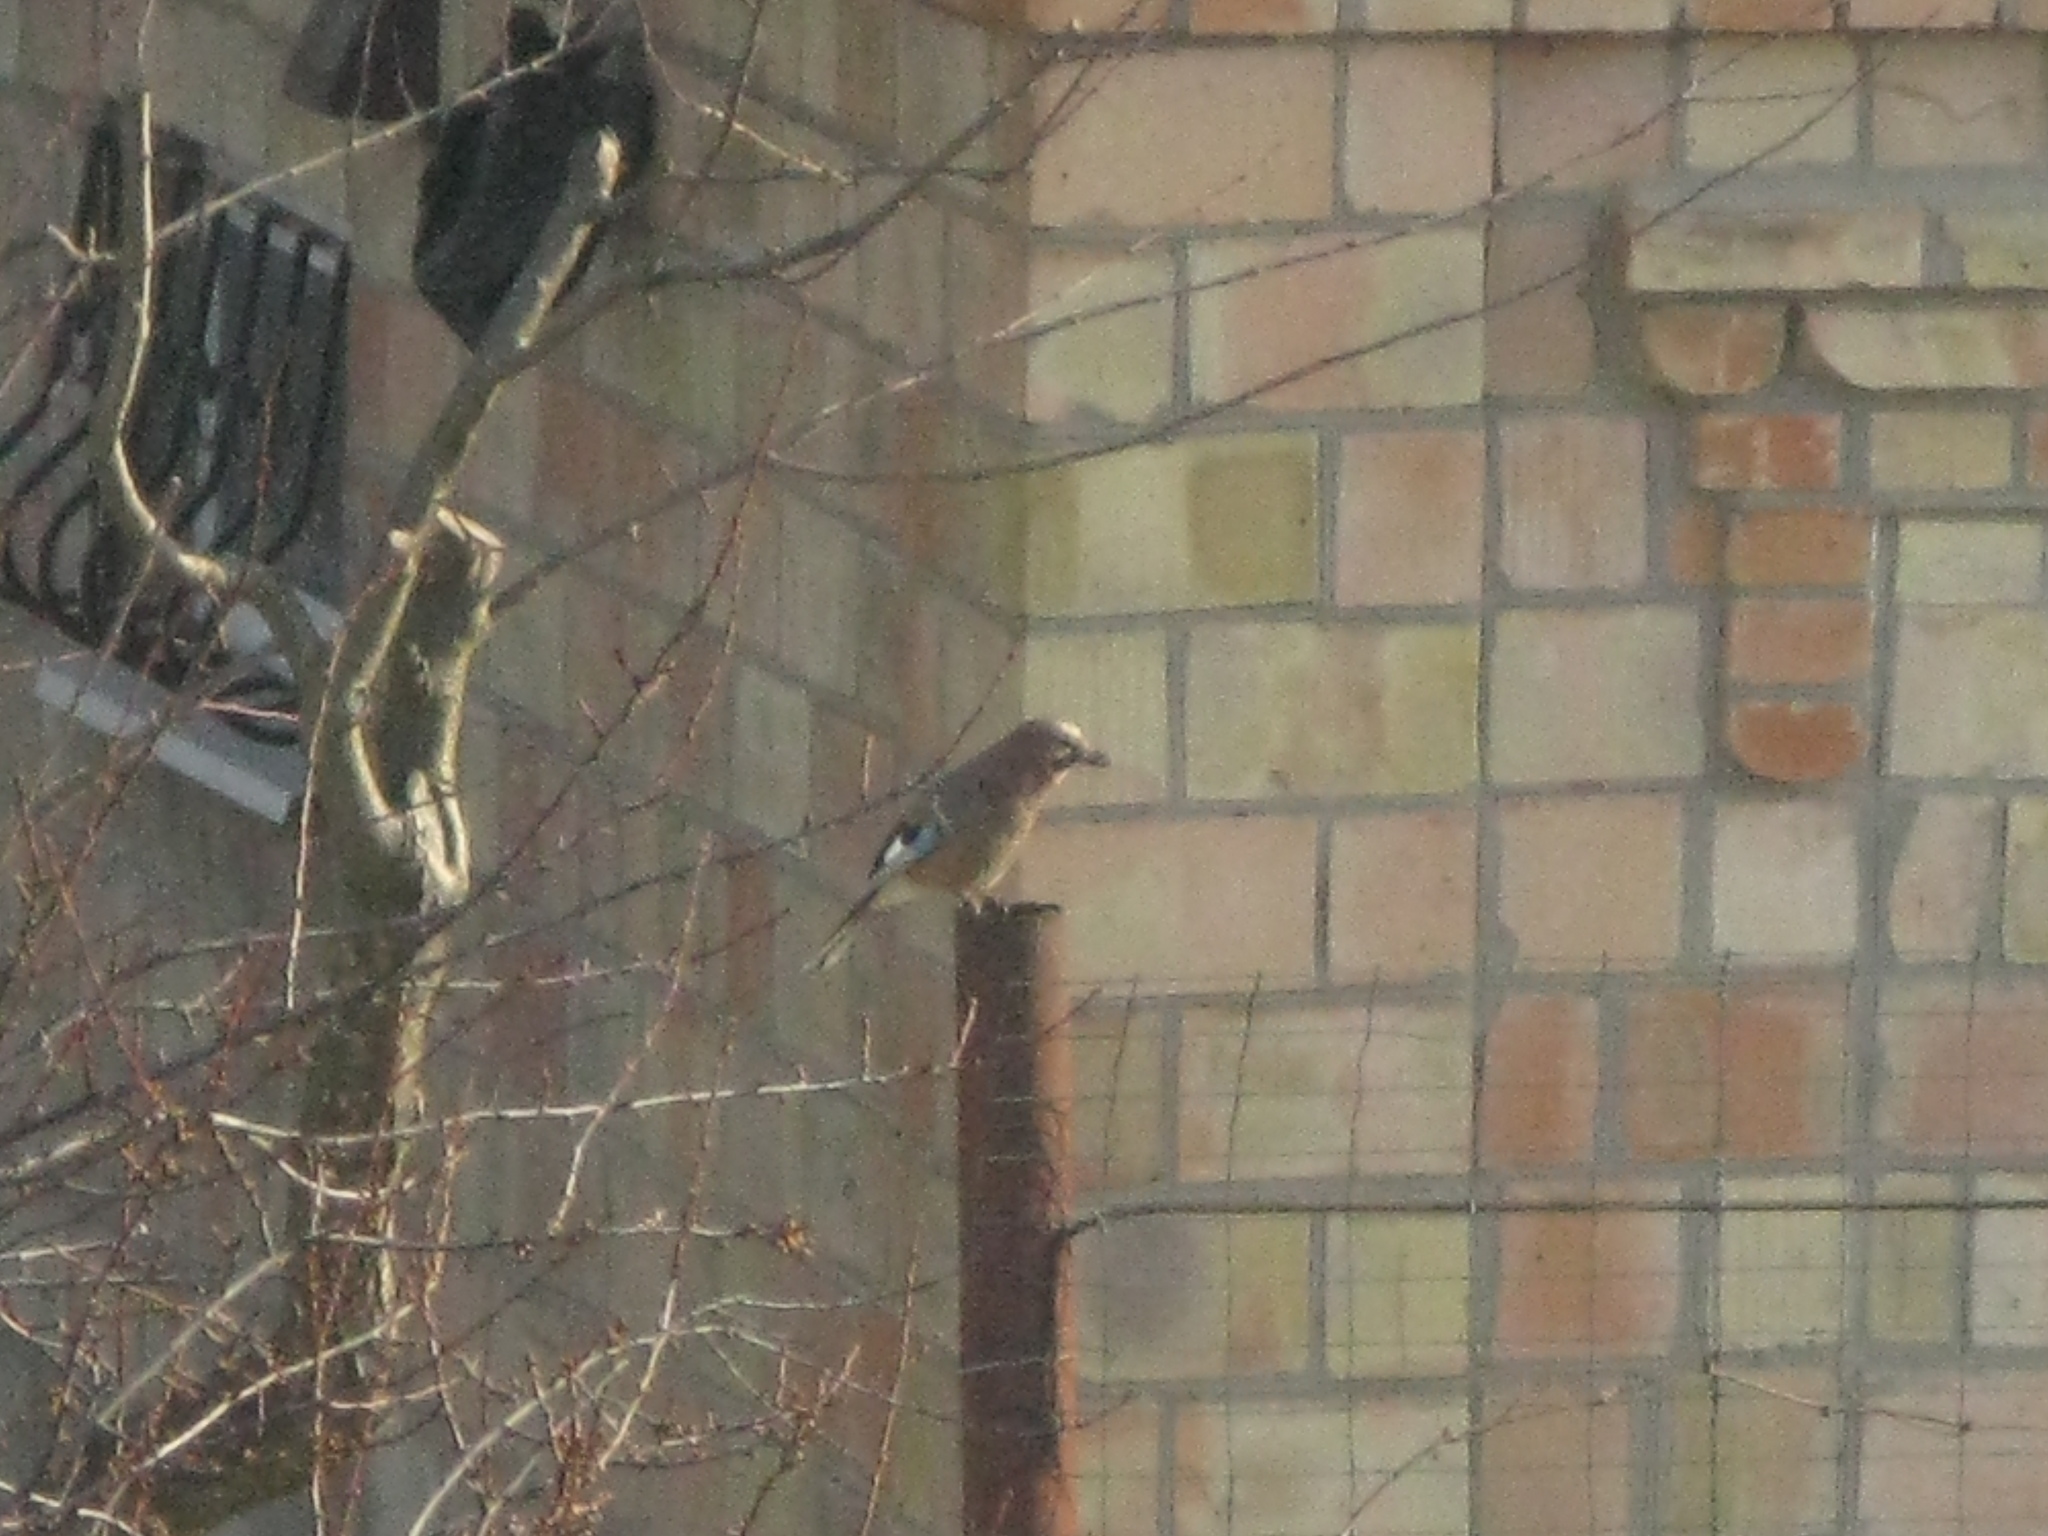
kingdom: Animalia
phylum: Chordata
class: Aves
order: Passeriformes
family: Corvidae
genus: Garrulus
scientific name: Garrulus glandarius
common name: Eurasian jay
